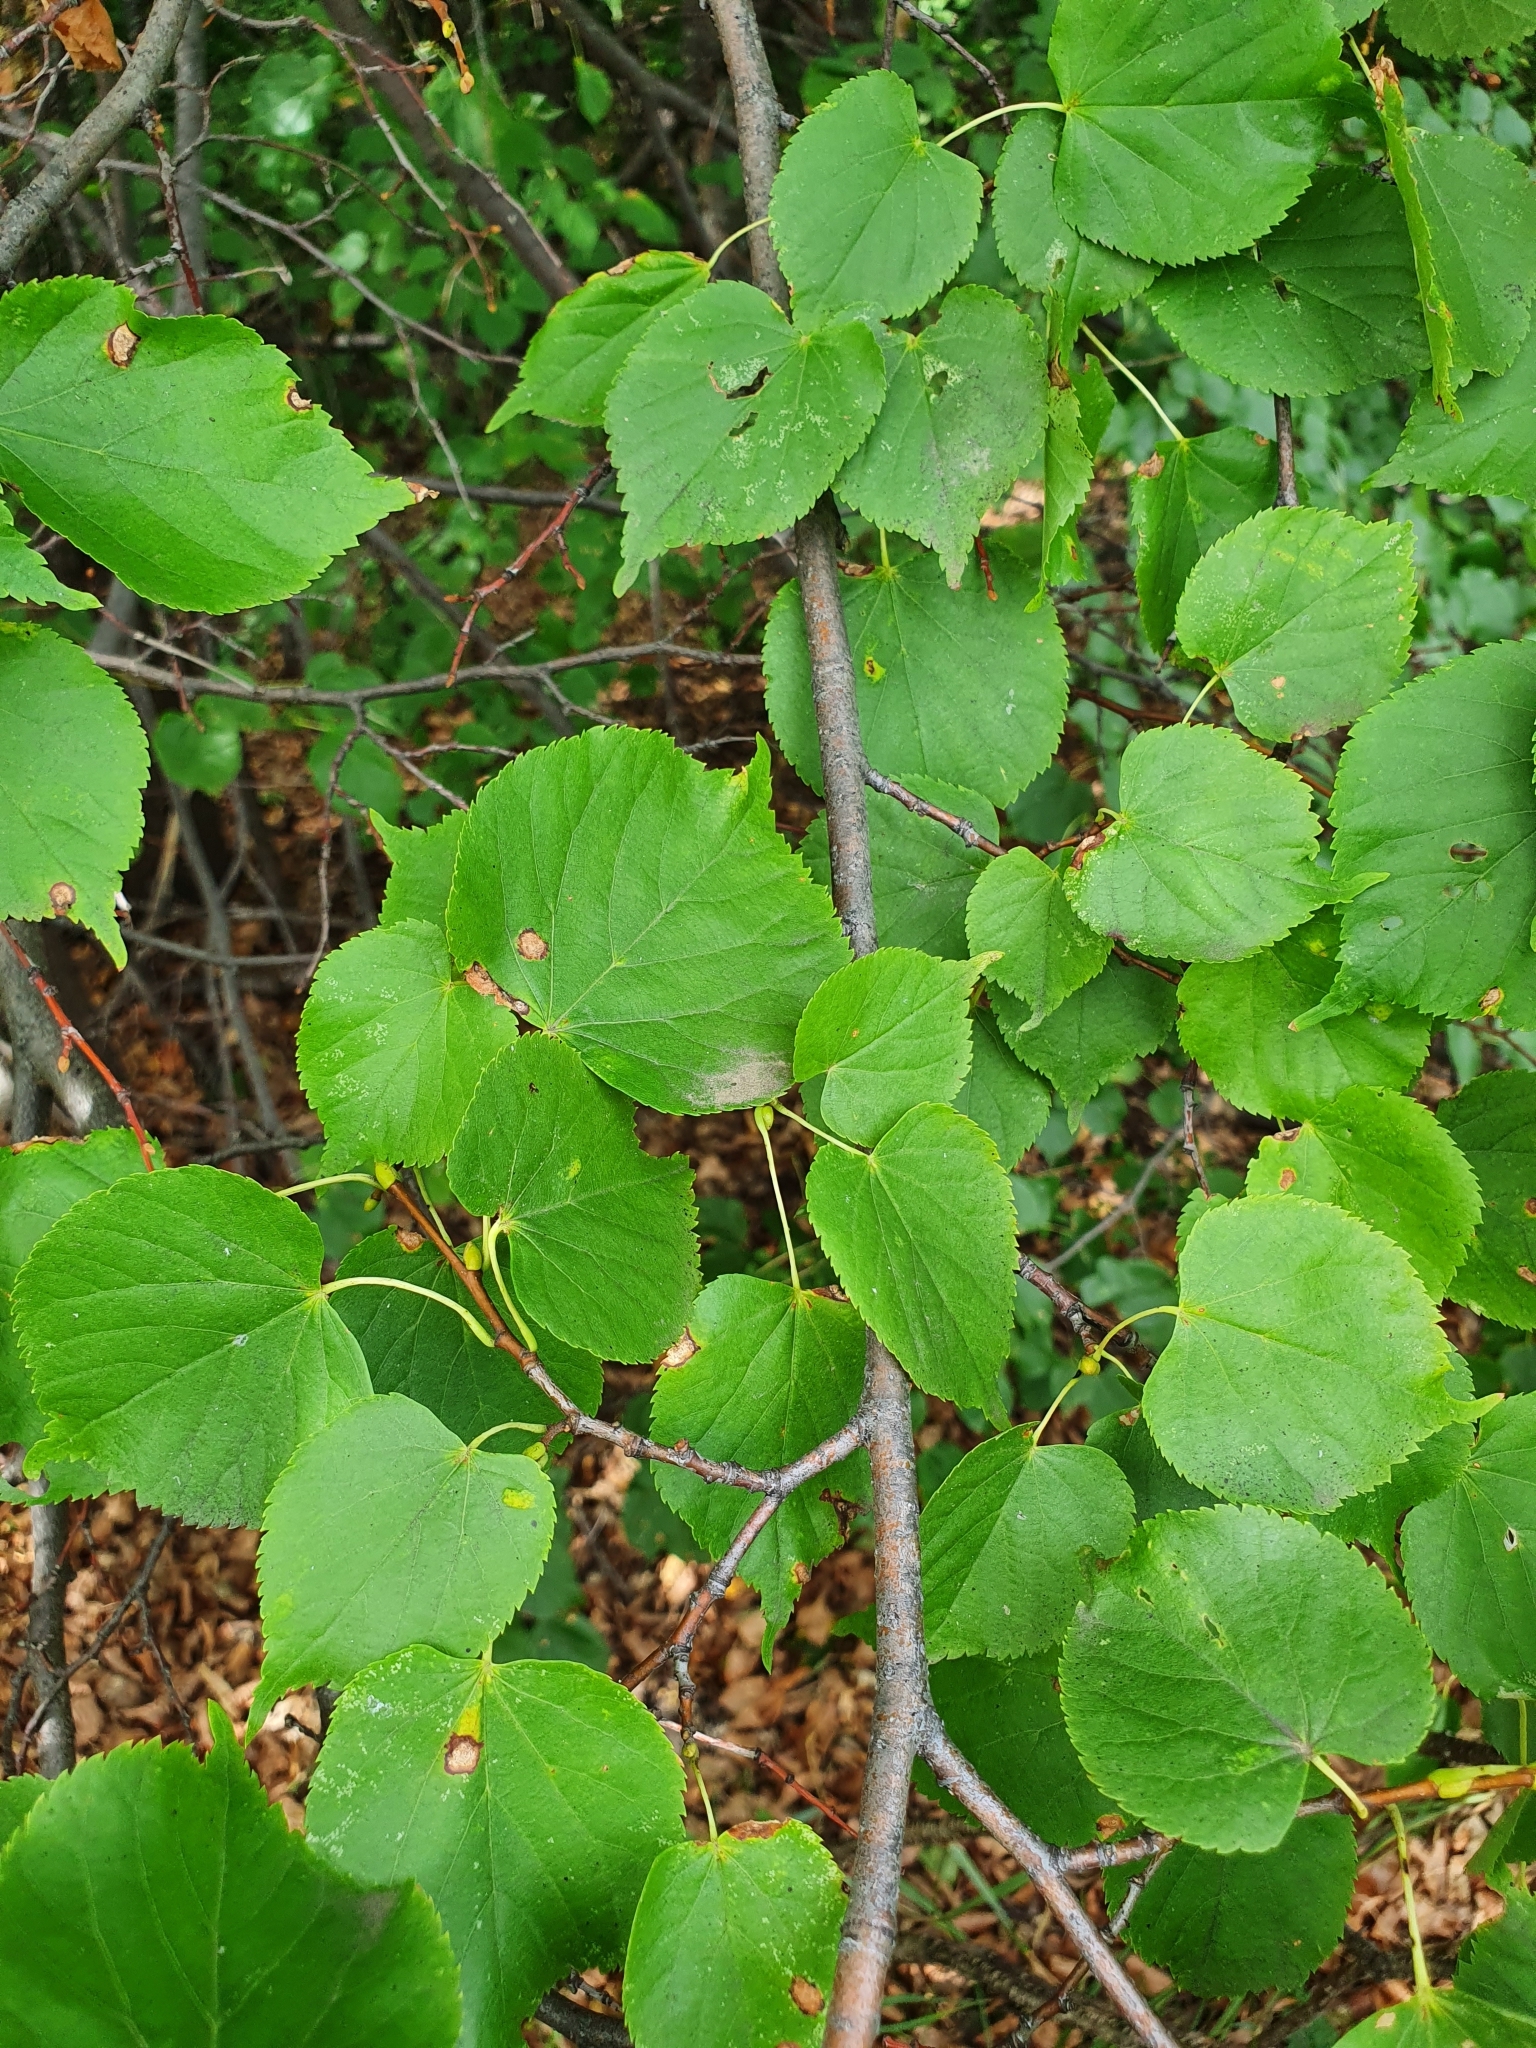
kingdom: Plantae
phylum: Tracheophyta
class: Magnoliopsida
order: Malvales
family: Malvaceae
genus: Tilia
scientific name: Tilia cordata
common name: Small-leaved lime
